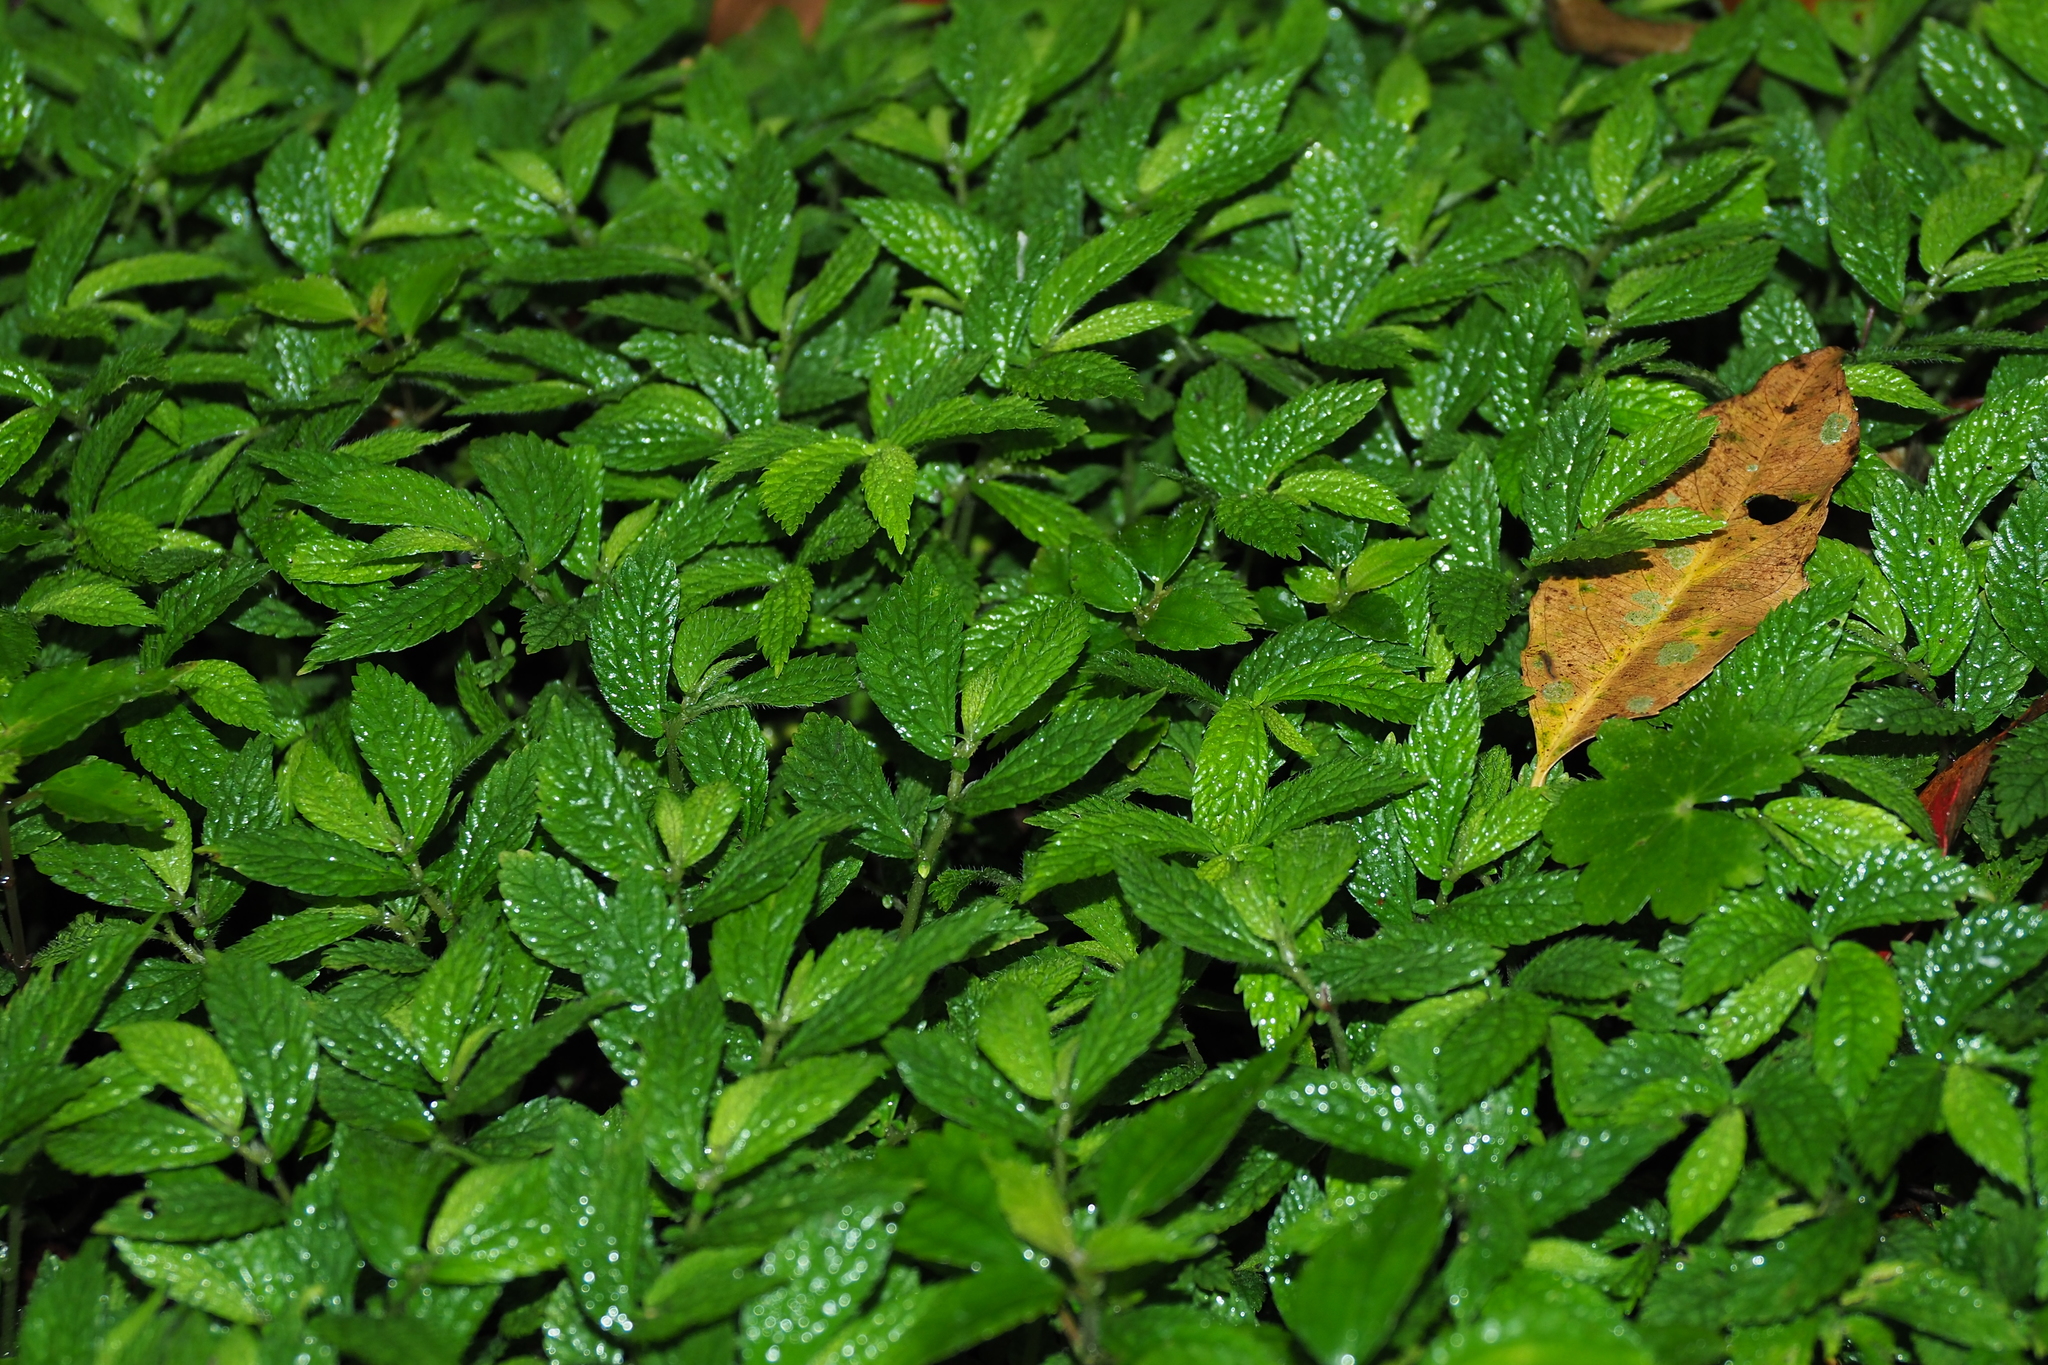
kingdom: Plantae
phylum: Tracheophyta
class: Magnoliopsida
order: Rosales
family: Urticaceae
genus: Elatostema
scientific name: Elatostema parvum
